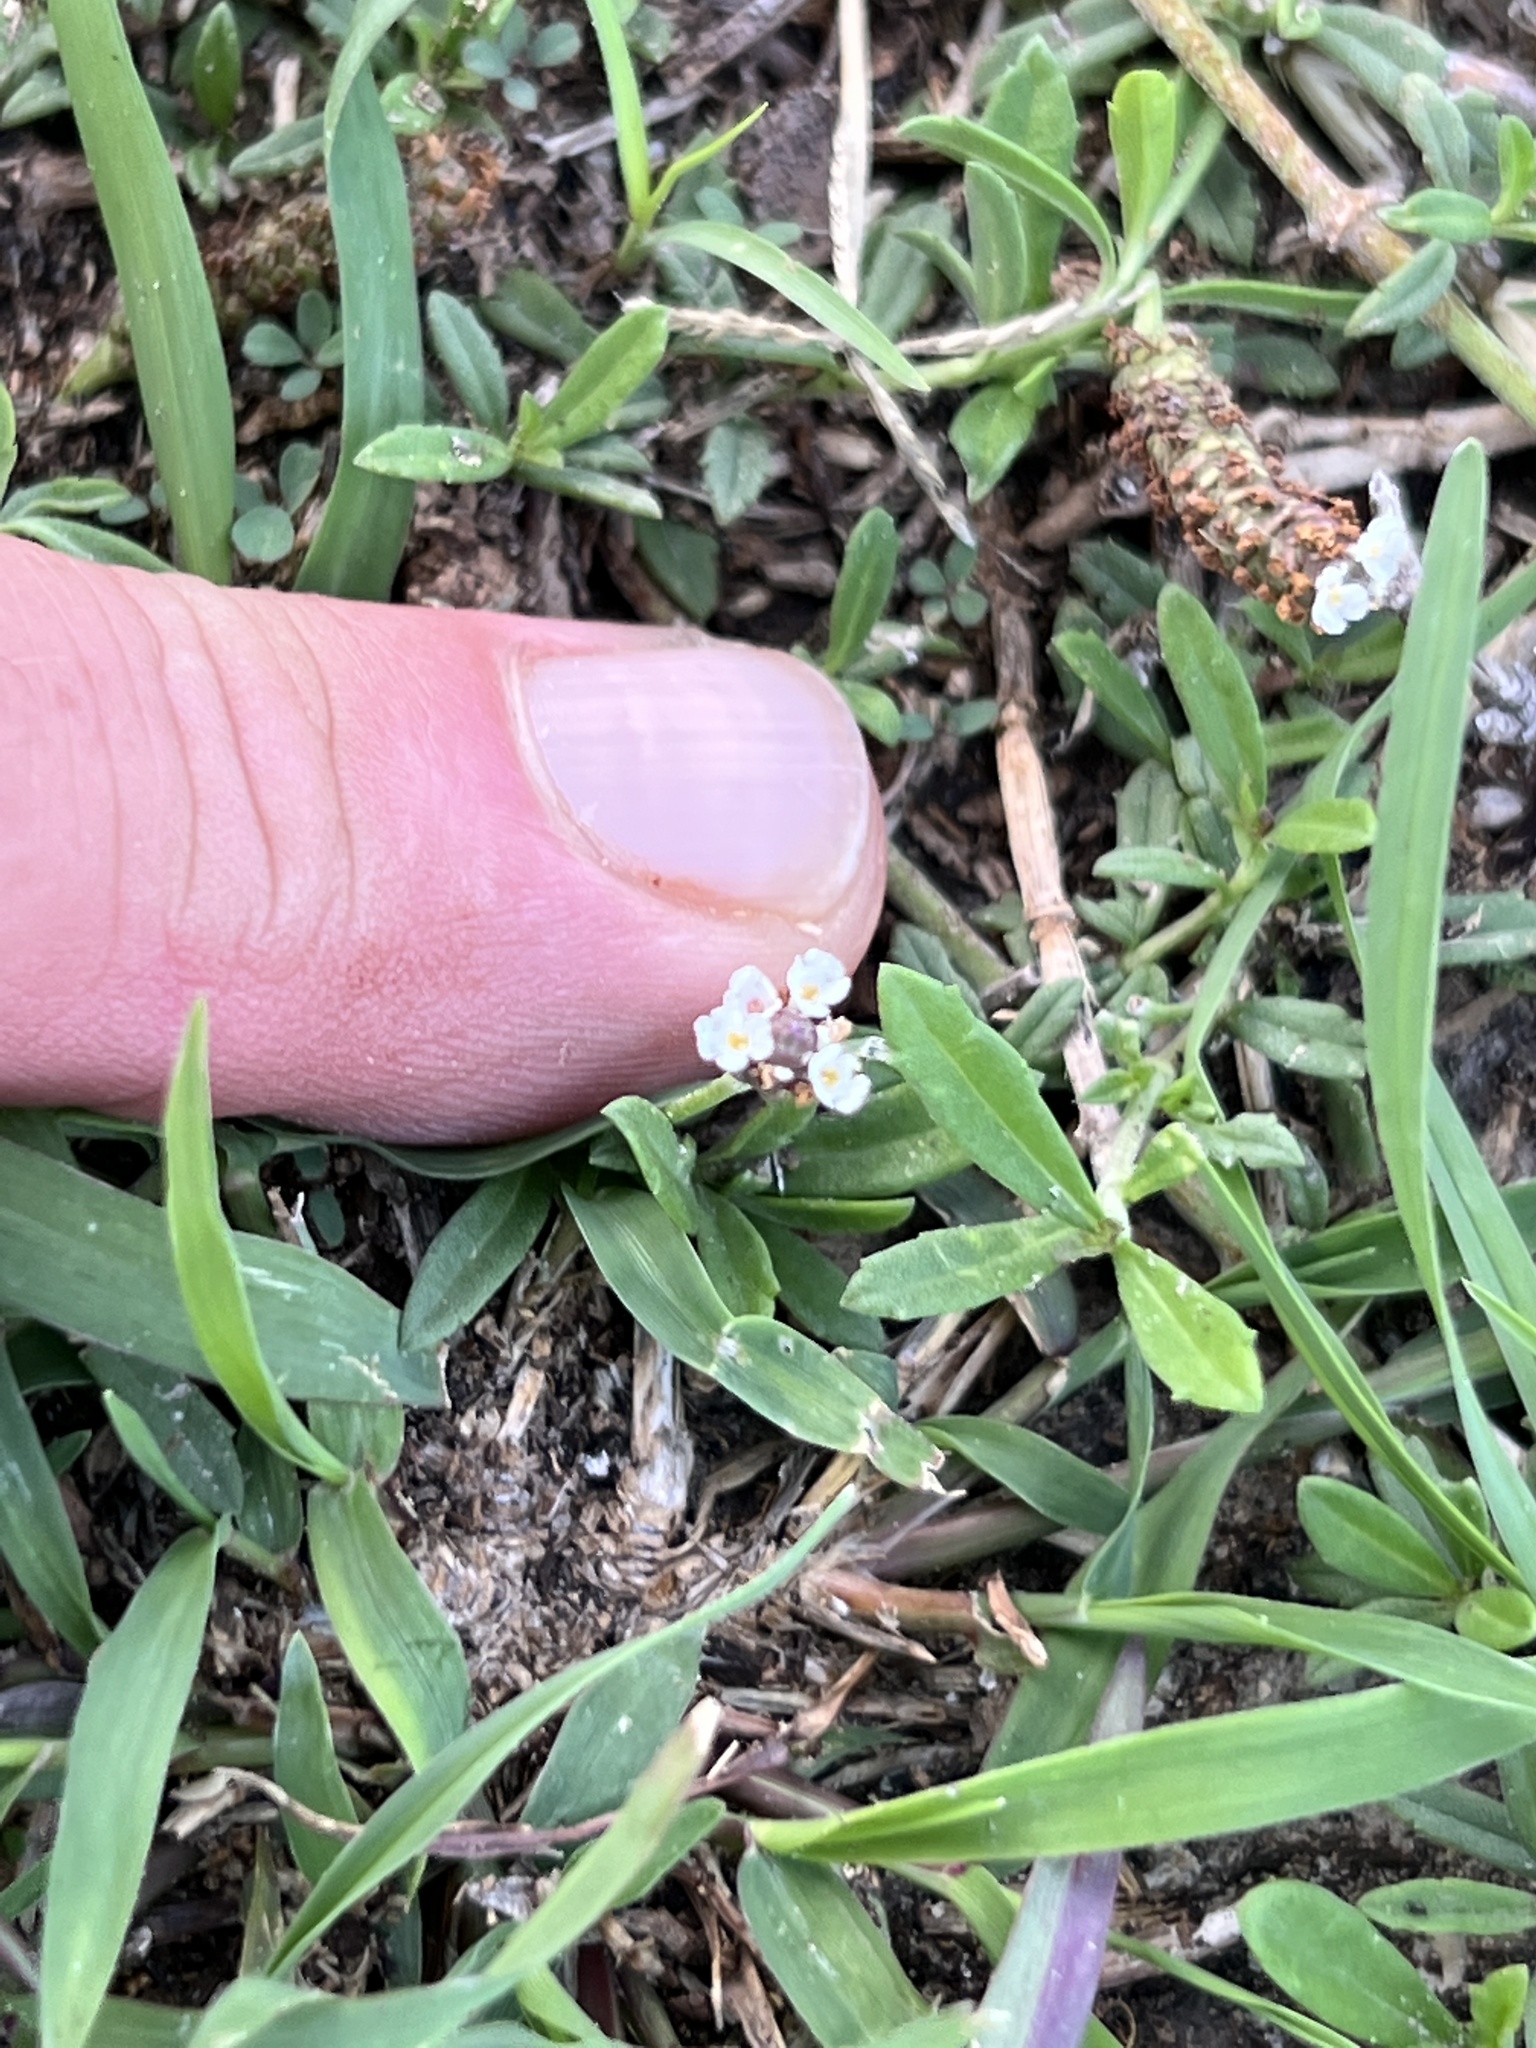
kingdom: Plantae
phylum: Tracheophyta
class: Magnoliopsida
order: Lamiales
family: Verbenaceae
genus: Phyla
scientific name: Phyla nodiflora
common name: Frogfruit
